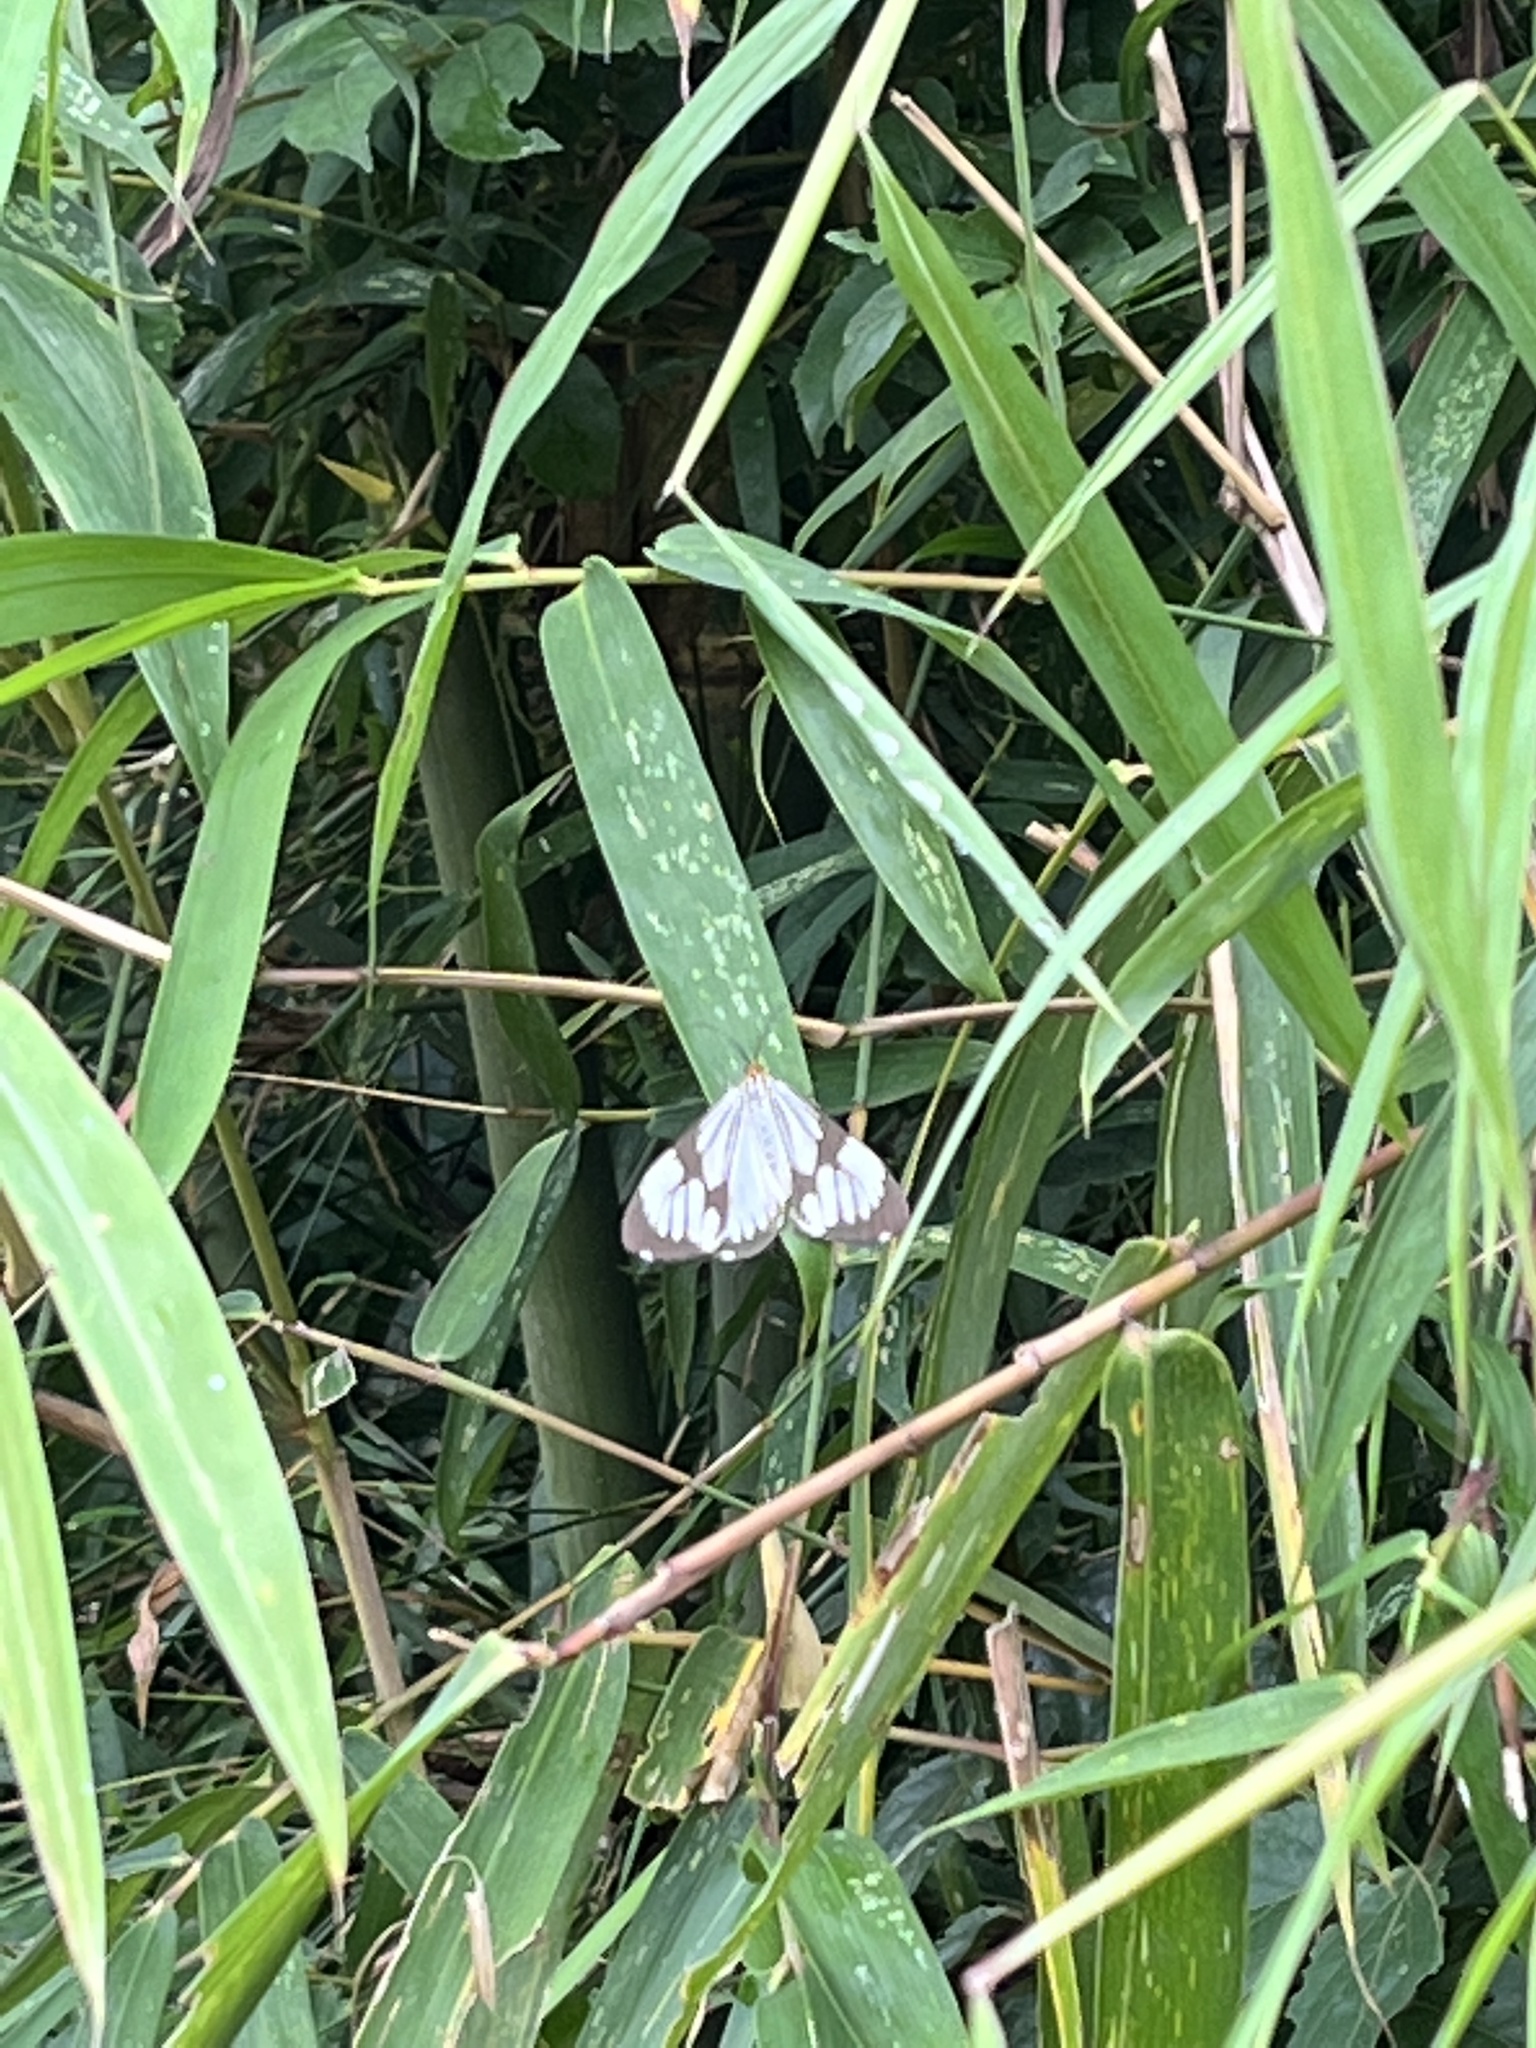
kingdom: Animalia
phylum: Arthropoda
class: Insecta
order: Lepidoptera
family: Erebidae
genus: Nyctemera
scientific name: Nyctemera coleta
